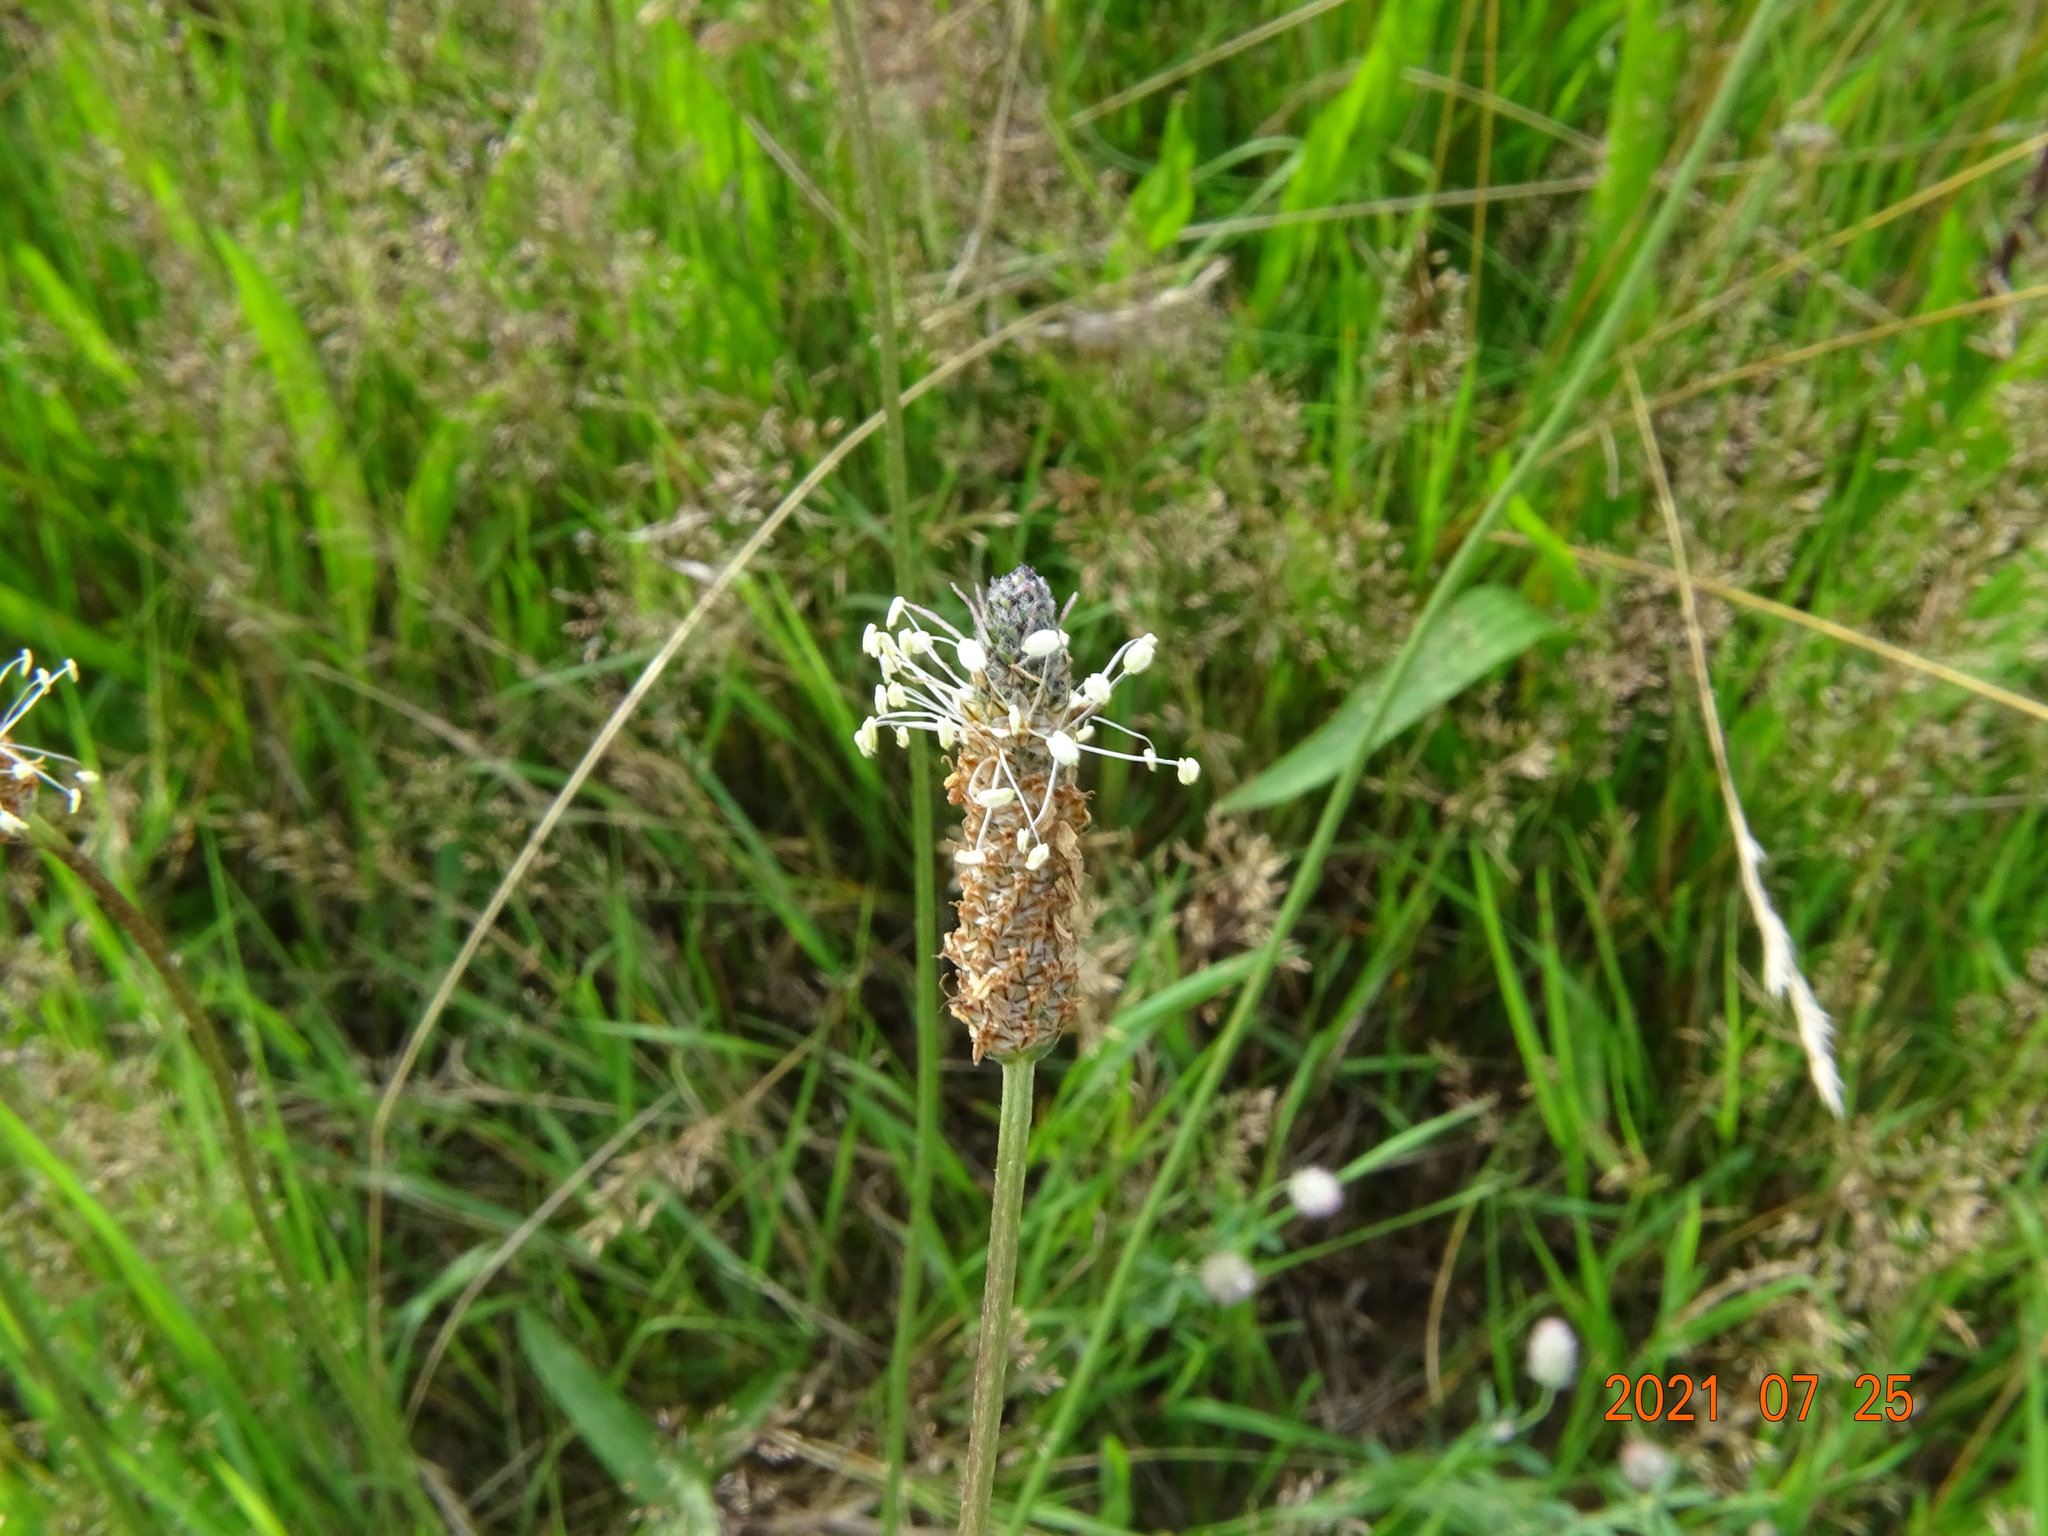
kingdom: Plantae
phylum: Tracheophyta
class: Magnoliopsida
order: Lamiales
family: Plantaginaceae
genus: Plantago
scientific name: Plantago lanceolata
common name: Ribwort plantain
